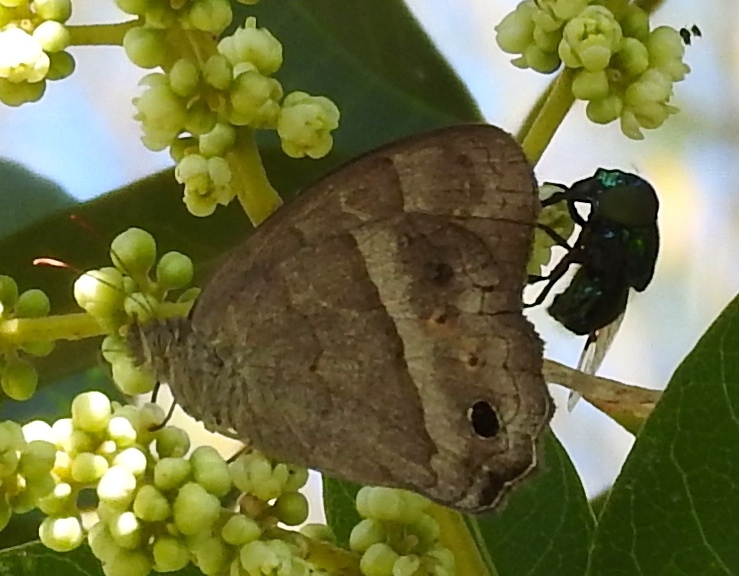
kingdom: Animalia
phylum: Arthropoda
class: Insecta
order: Lepidoptera
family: Nymphalidae
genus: Vareuptychia
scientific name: Vareuptychia similis
